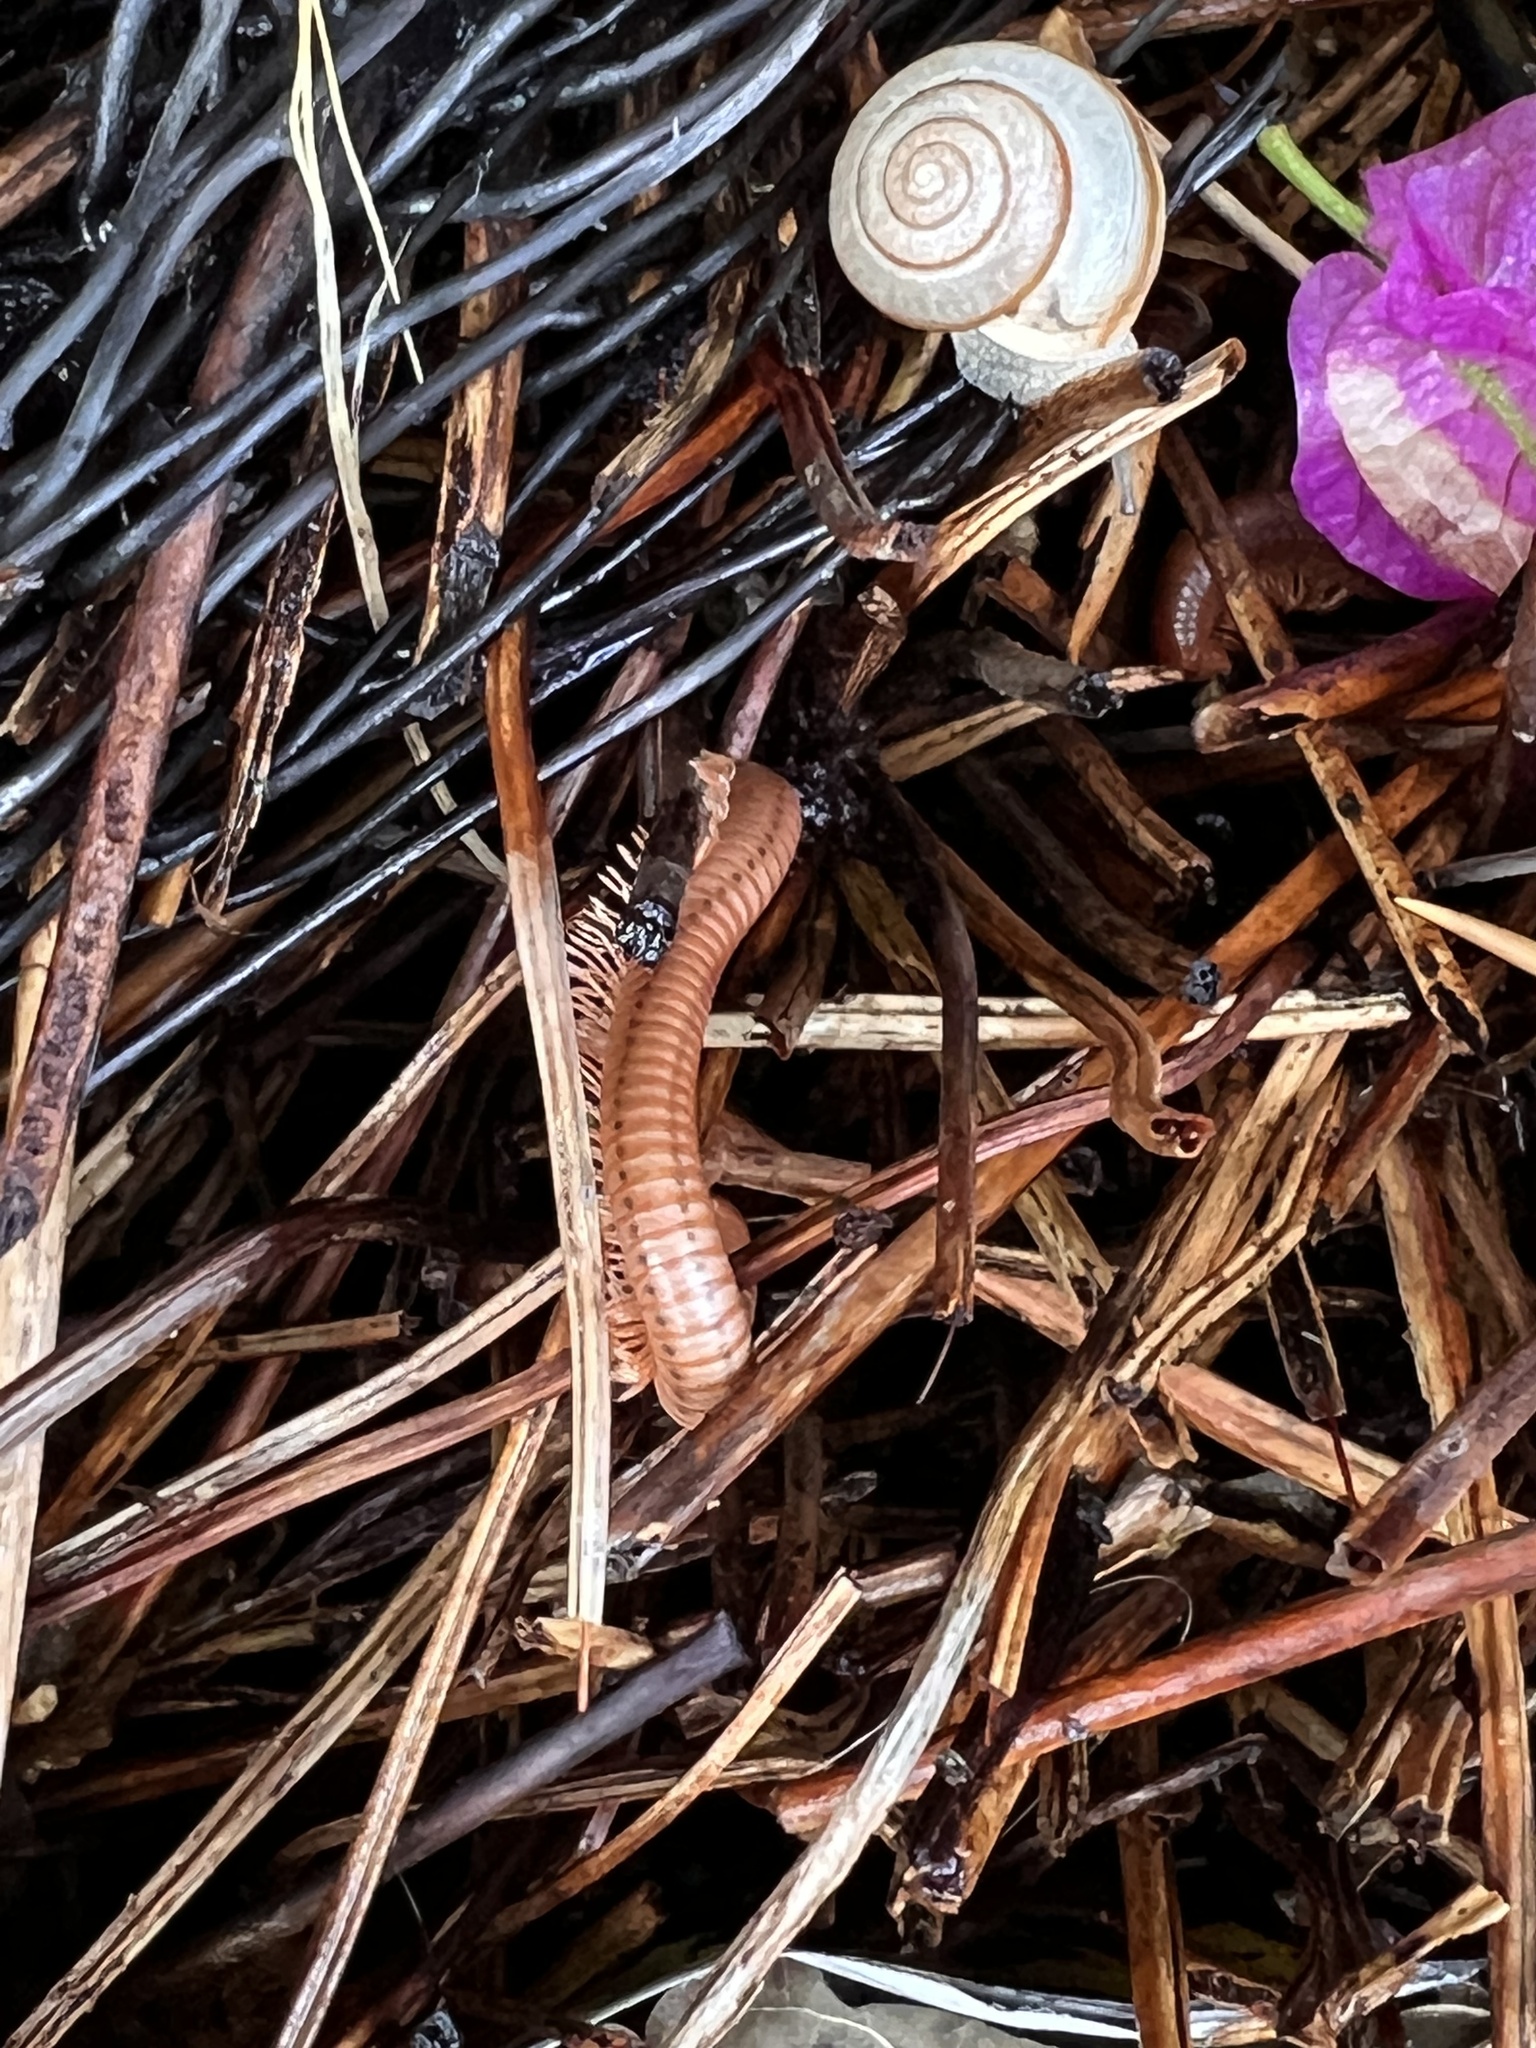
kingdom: Animalia
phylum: Arthropoda
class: Diplopoda
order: Spirobolida
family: Pachybolidae
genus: Trigoniulus
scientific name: Trigoniulus corallinus
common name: Millipede
